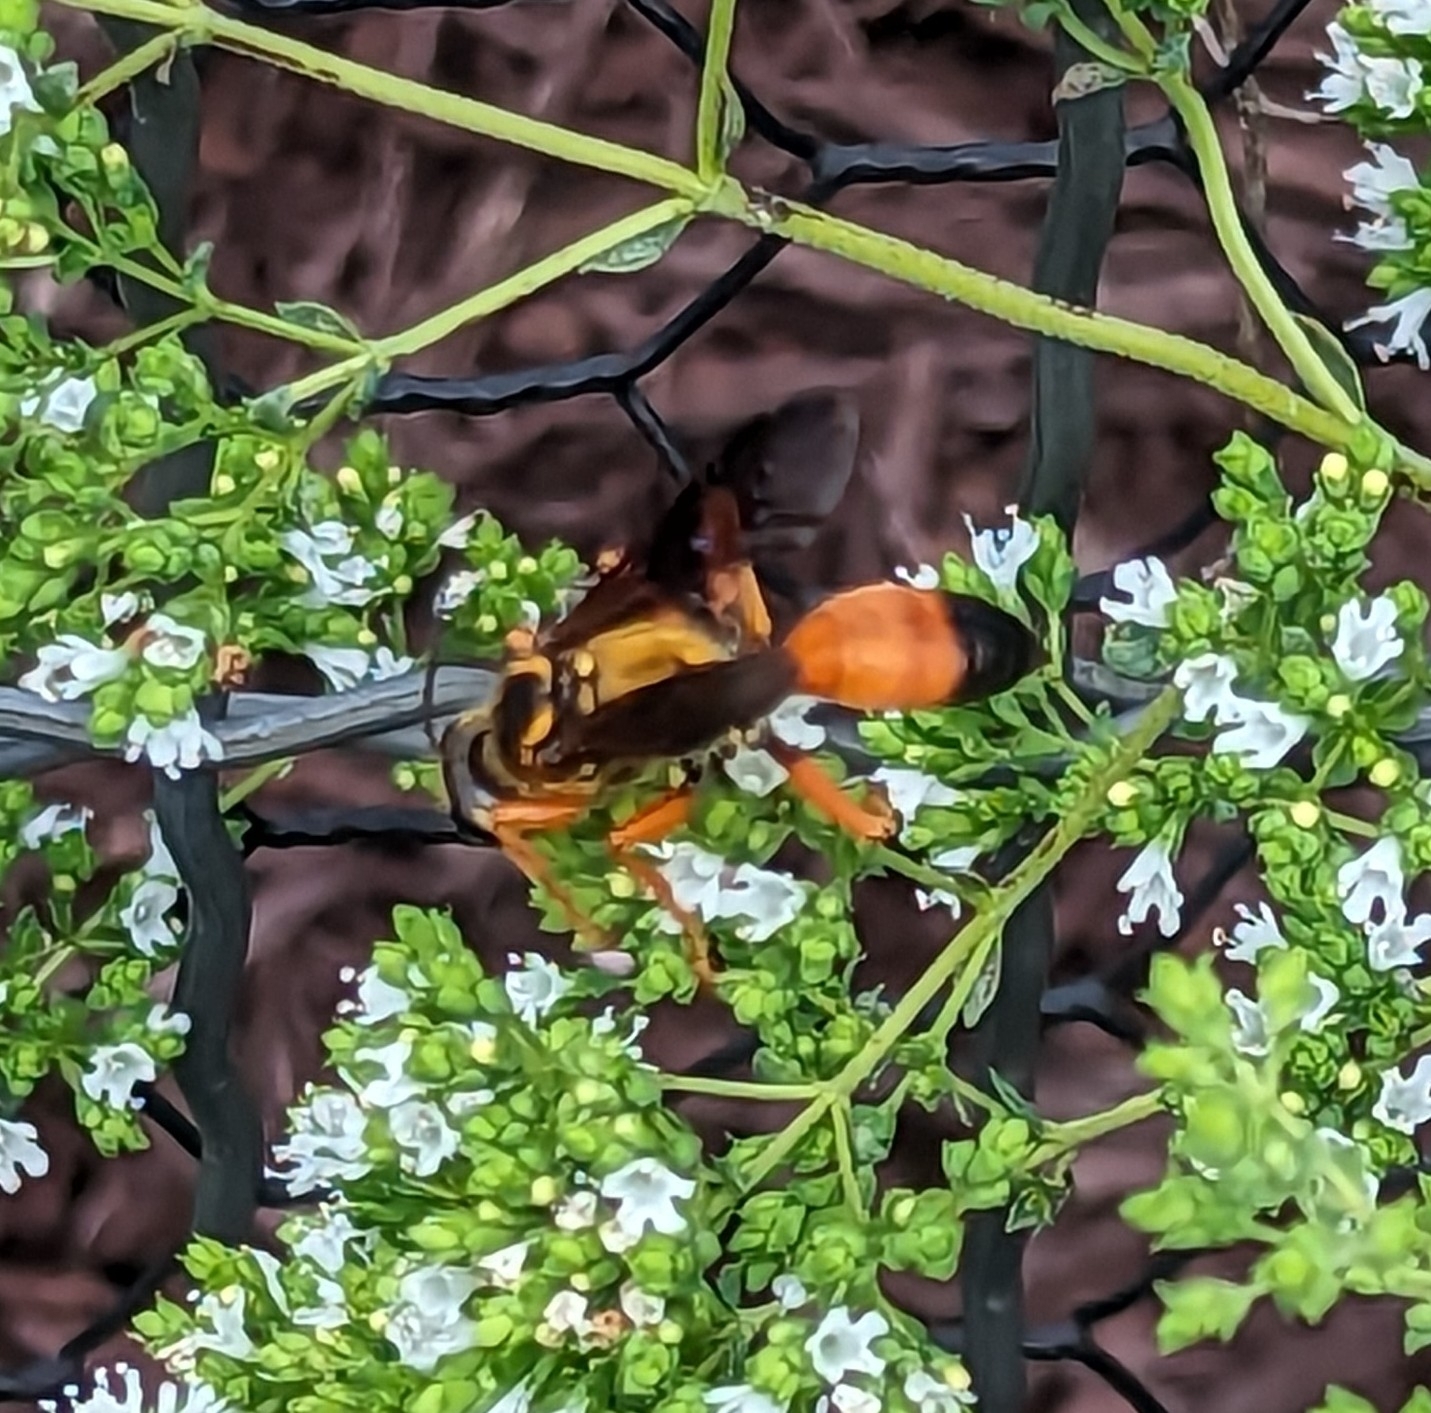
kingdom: Animalia
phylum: Arthropoda
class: Insecta
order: Hymenoptera
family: Sphecidae
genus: Sphex
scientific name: Sphex ichneumoneus
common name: Great golden digger wasp
